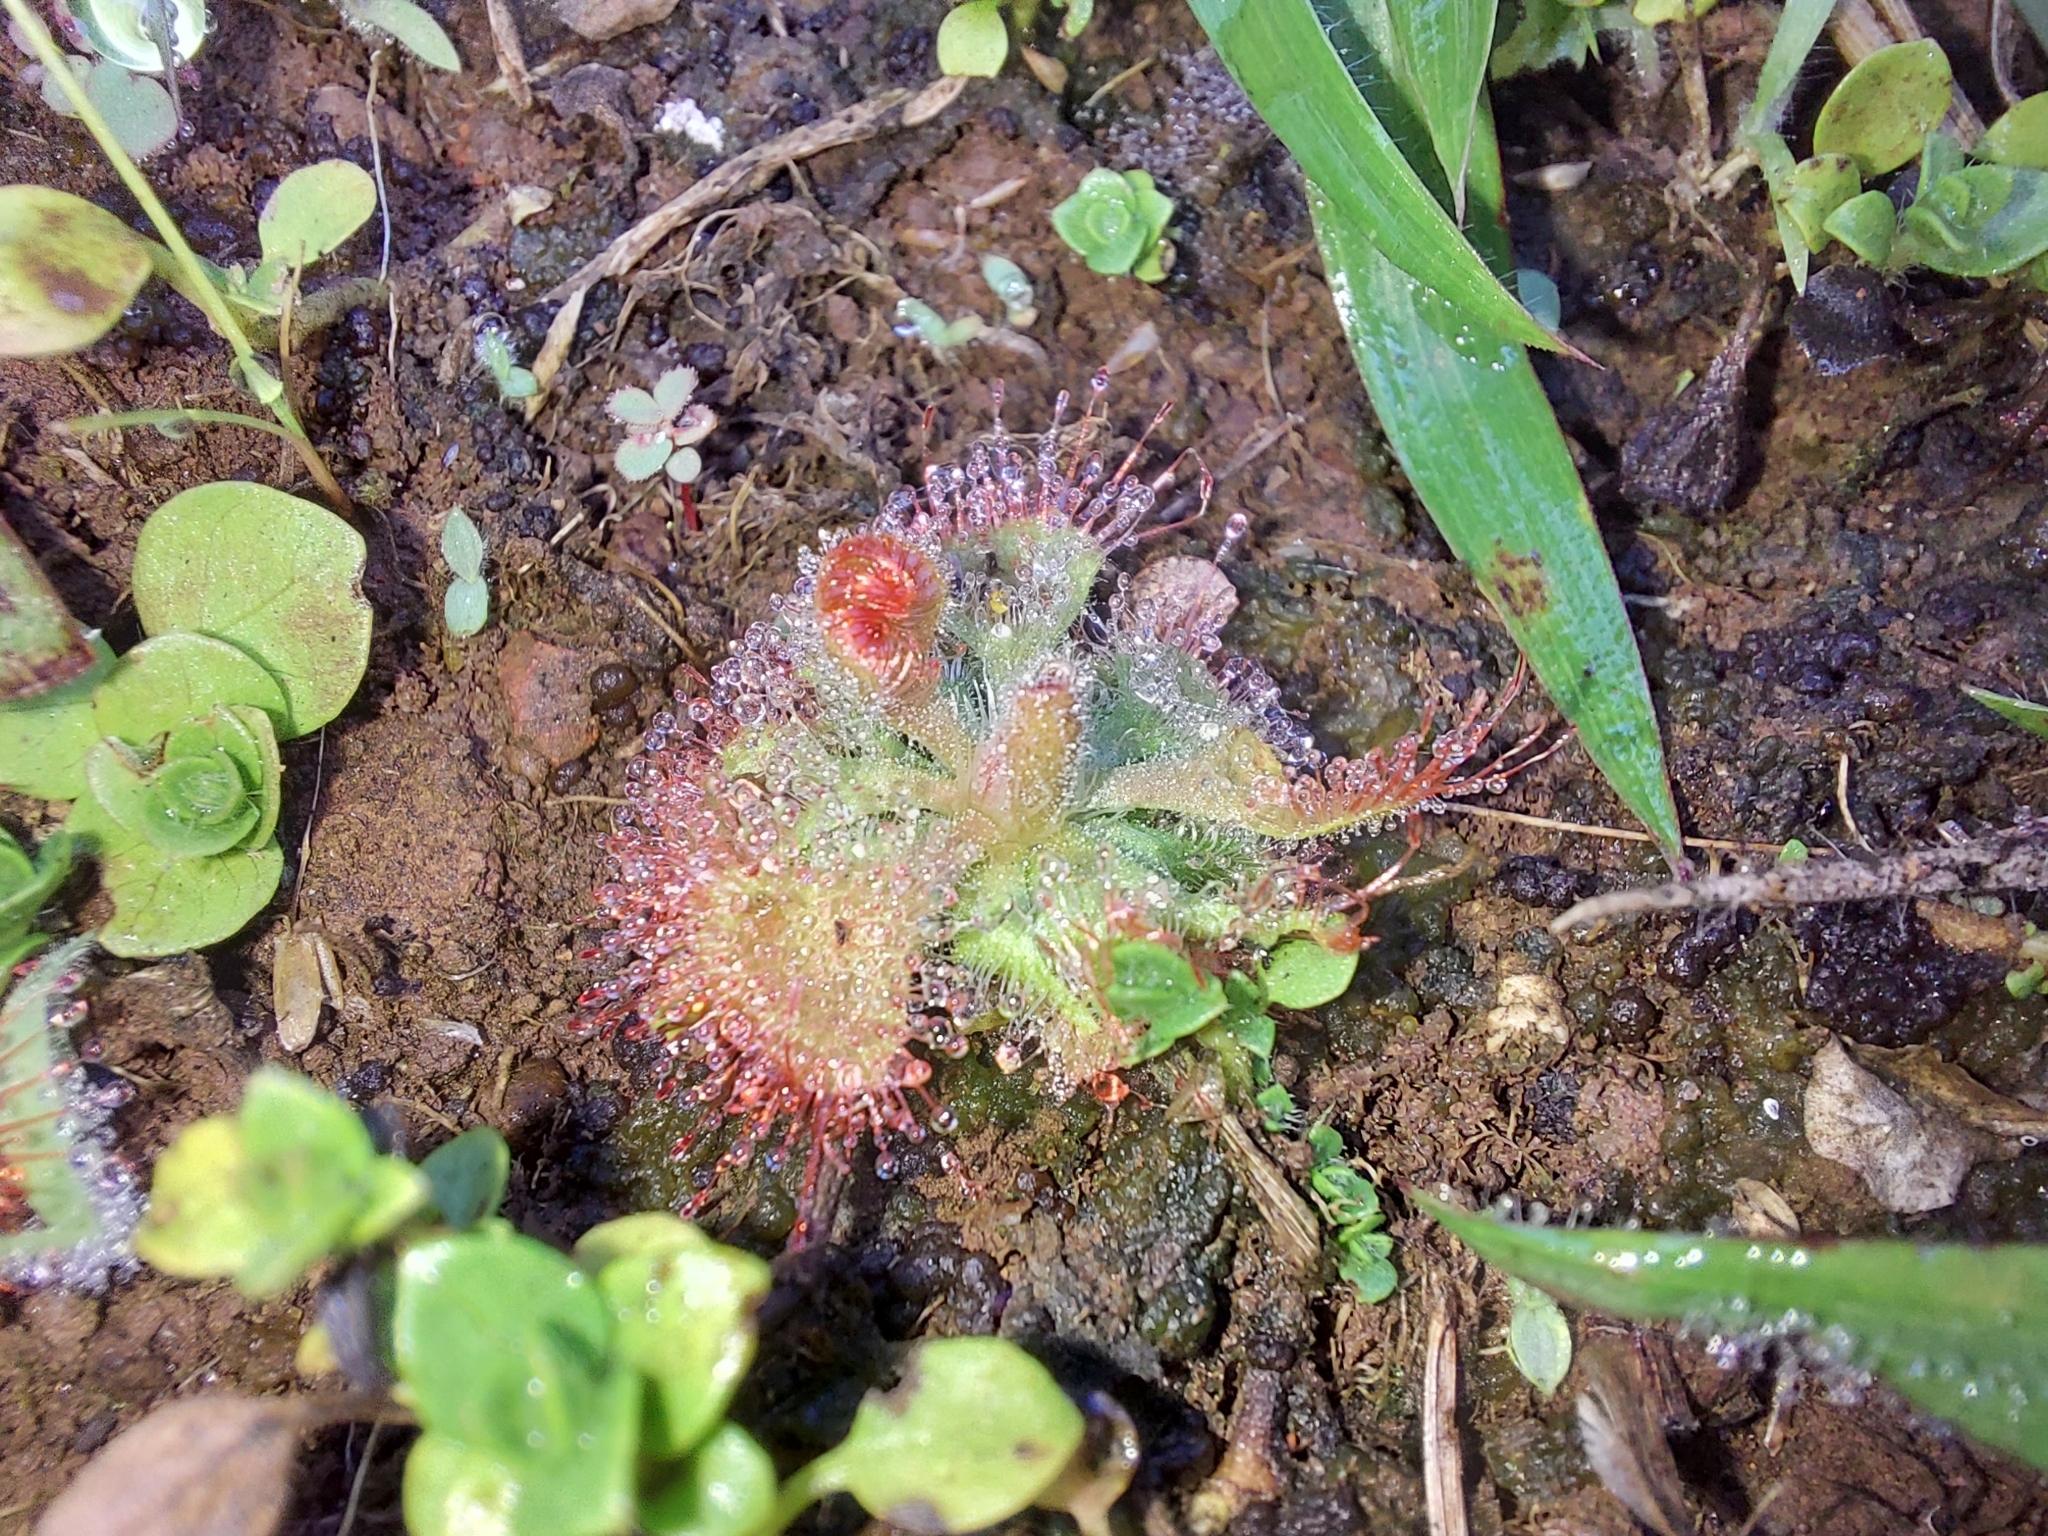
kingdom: Plantae
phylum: Tracheophyta
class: Magnoliopsida
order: Caryophyllales
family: Droseraceae
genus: Drosera
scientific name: Drosera spatulata
